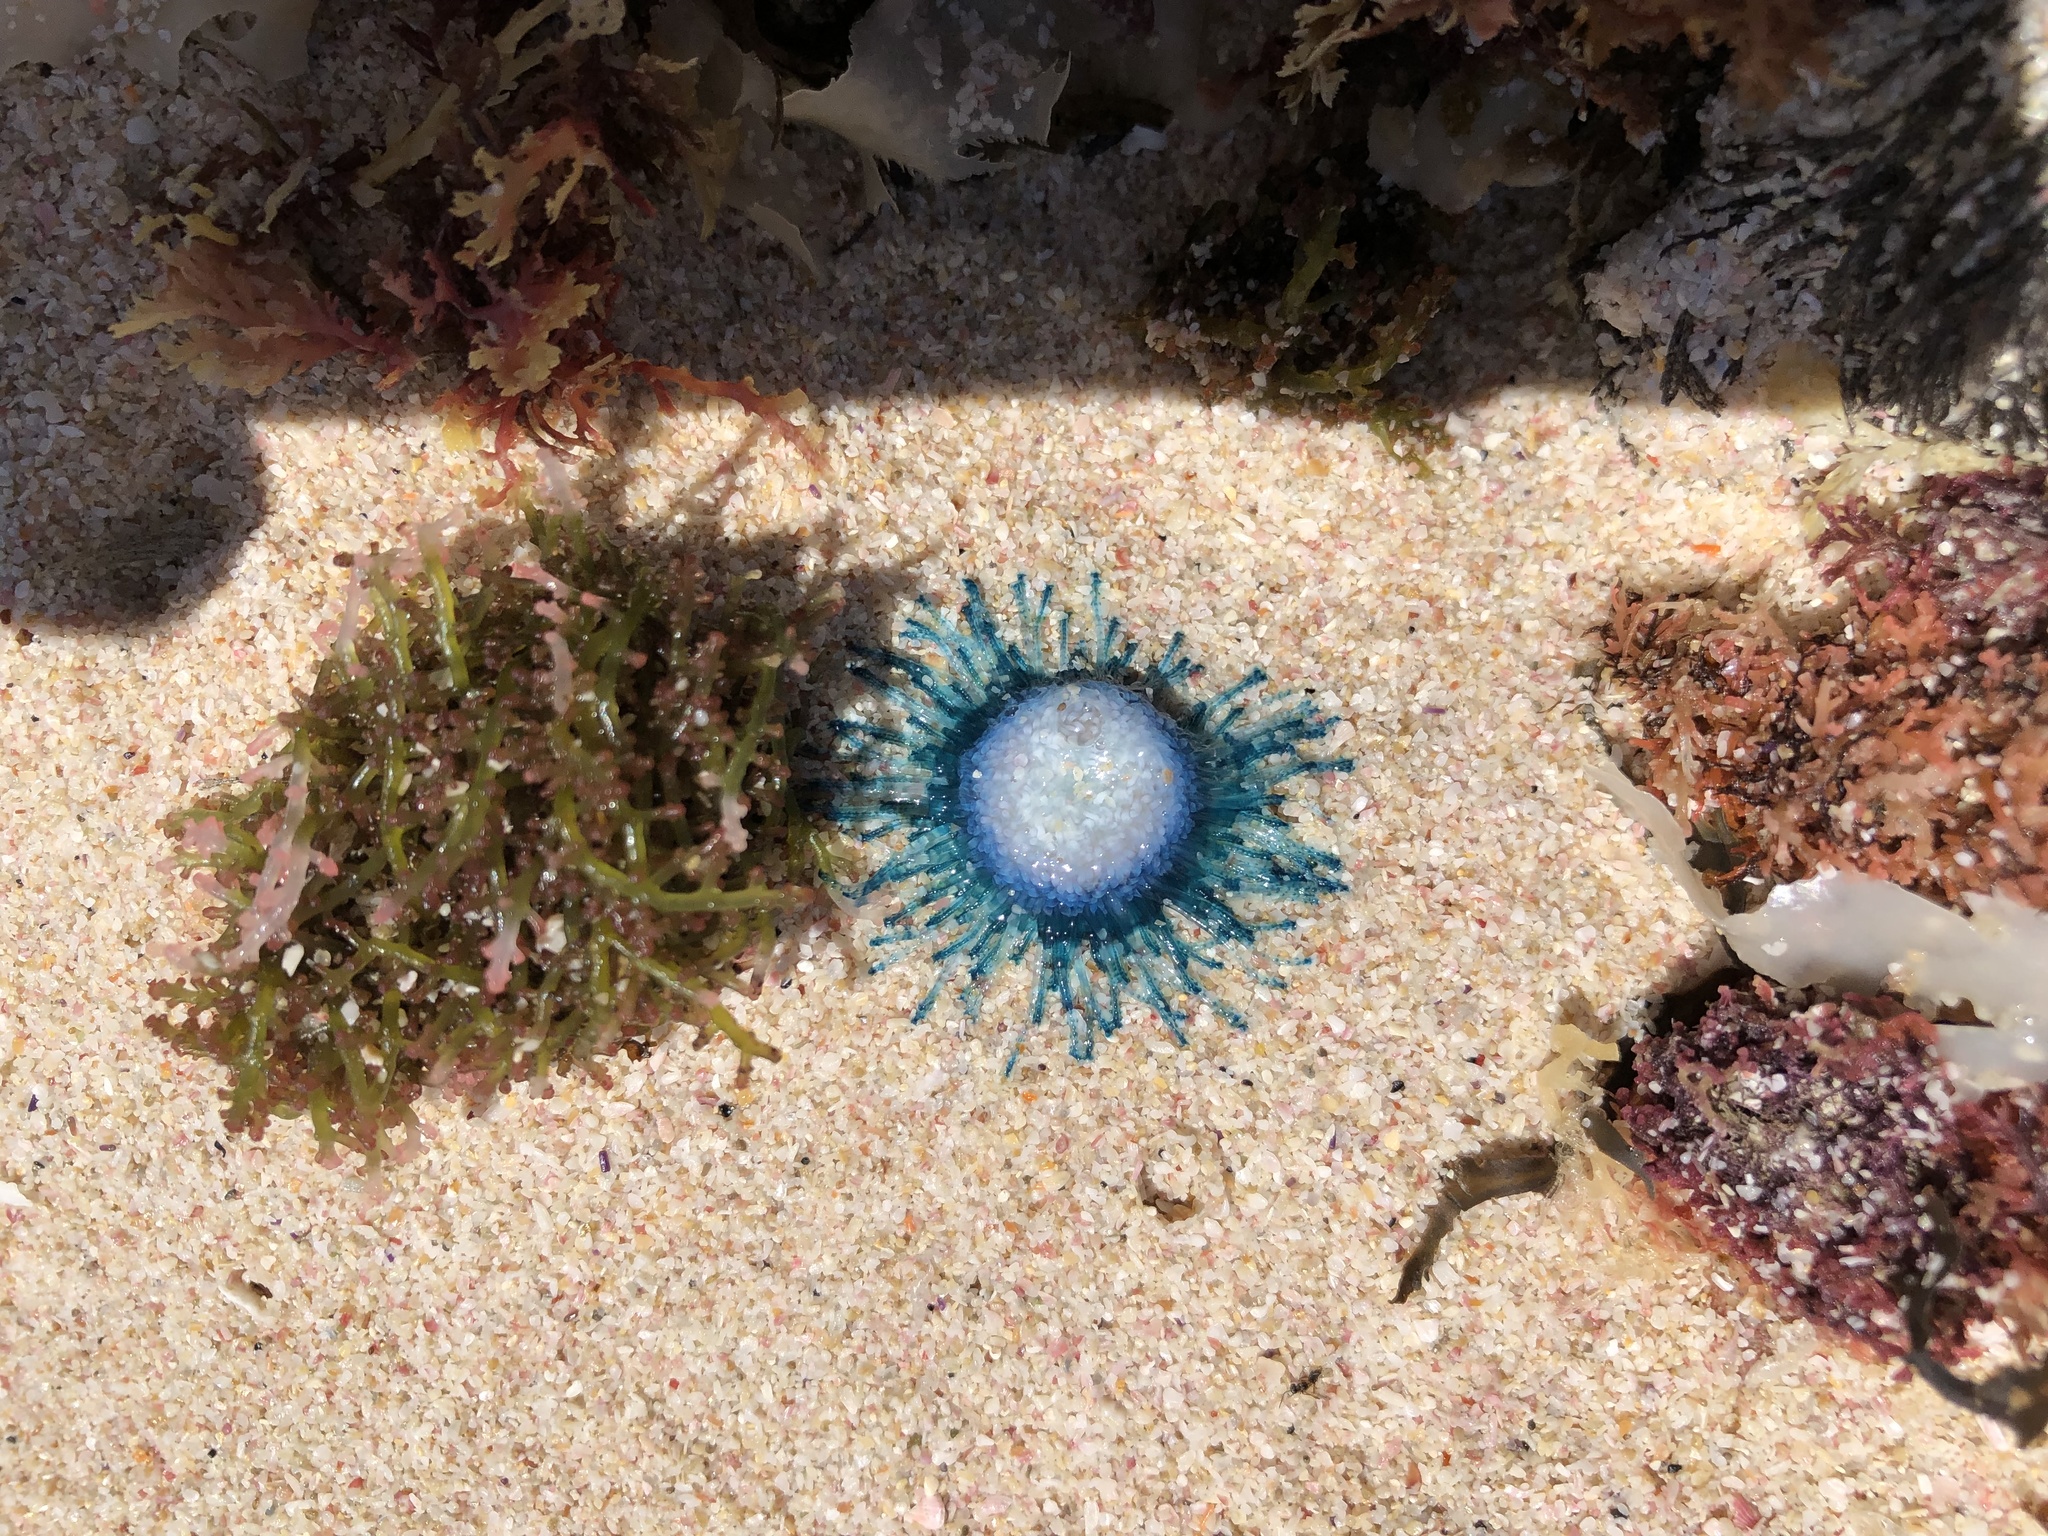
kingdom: Animalia
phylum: Cnidaria
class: Hydrozoa
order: Anthoathecata
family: Porpitidae
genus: Porpita
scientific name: Porpita porpita
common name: Blue button
